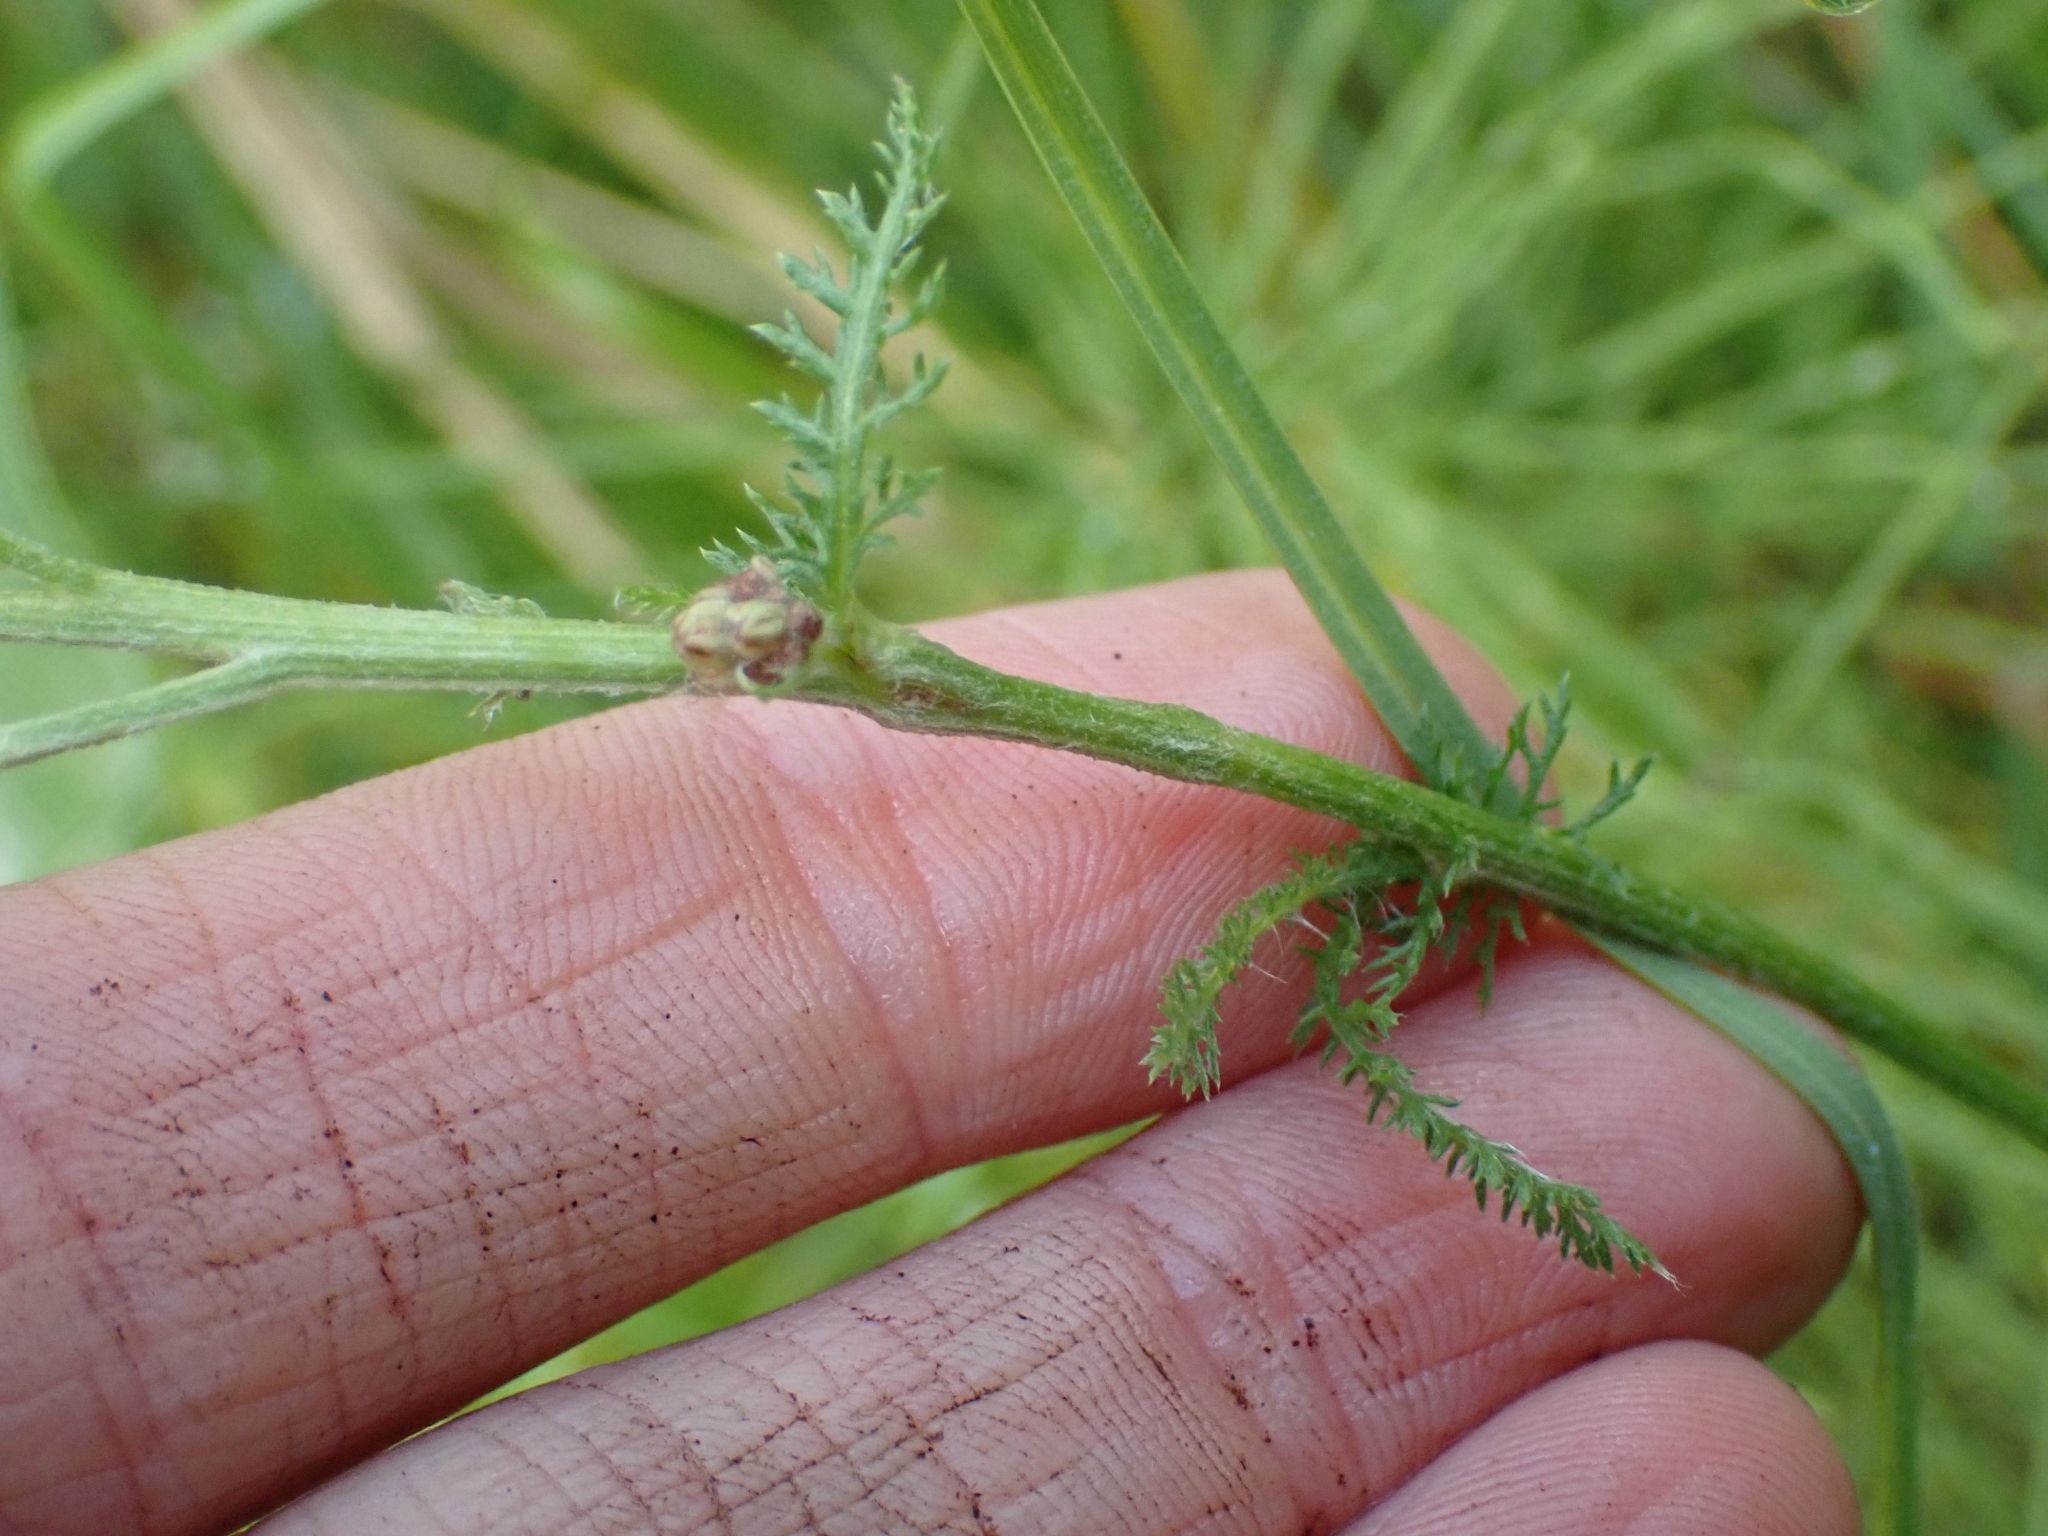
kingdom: Plantae
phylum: Tracheophyta
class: Magnoliopsida
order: Asterales
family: Asteraceae
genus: Achillea
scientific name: Achillea millefolium
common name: Yarrow
